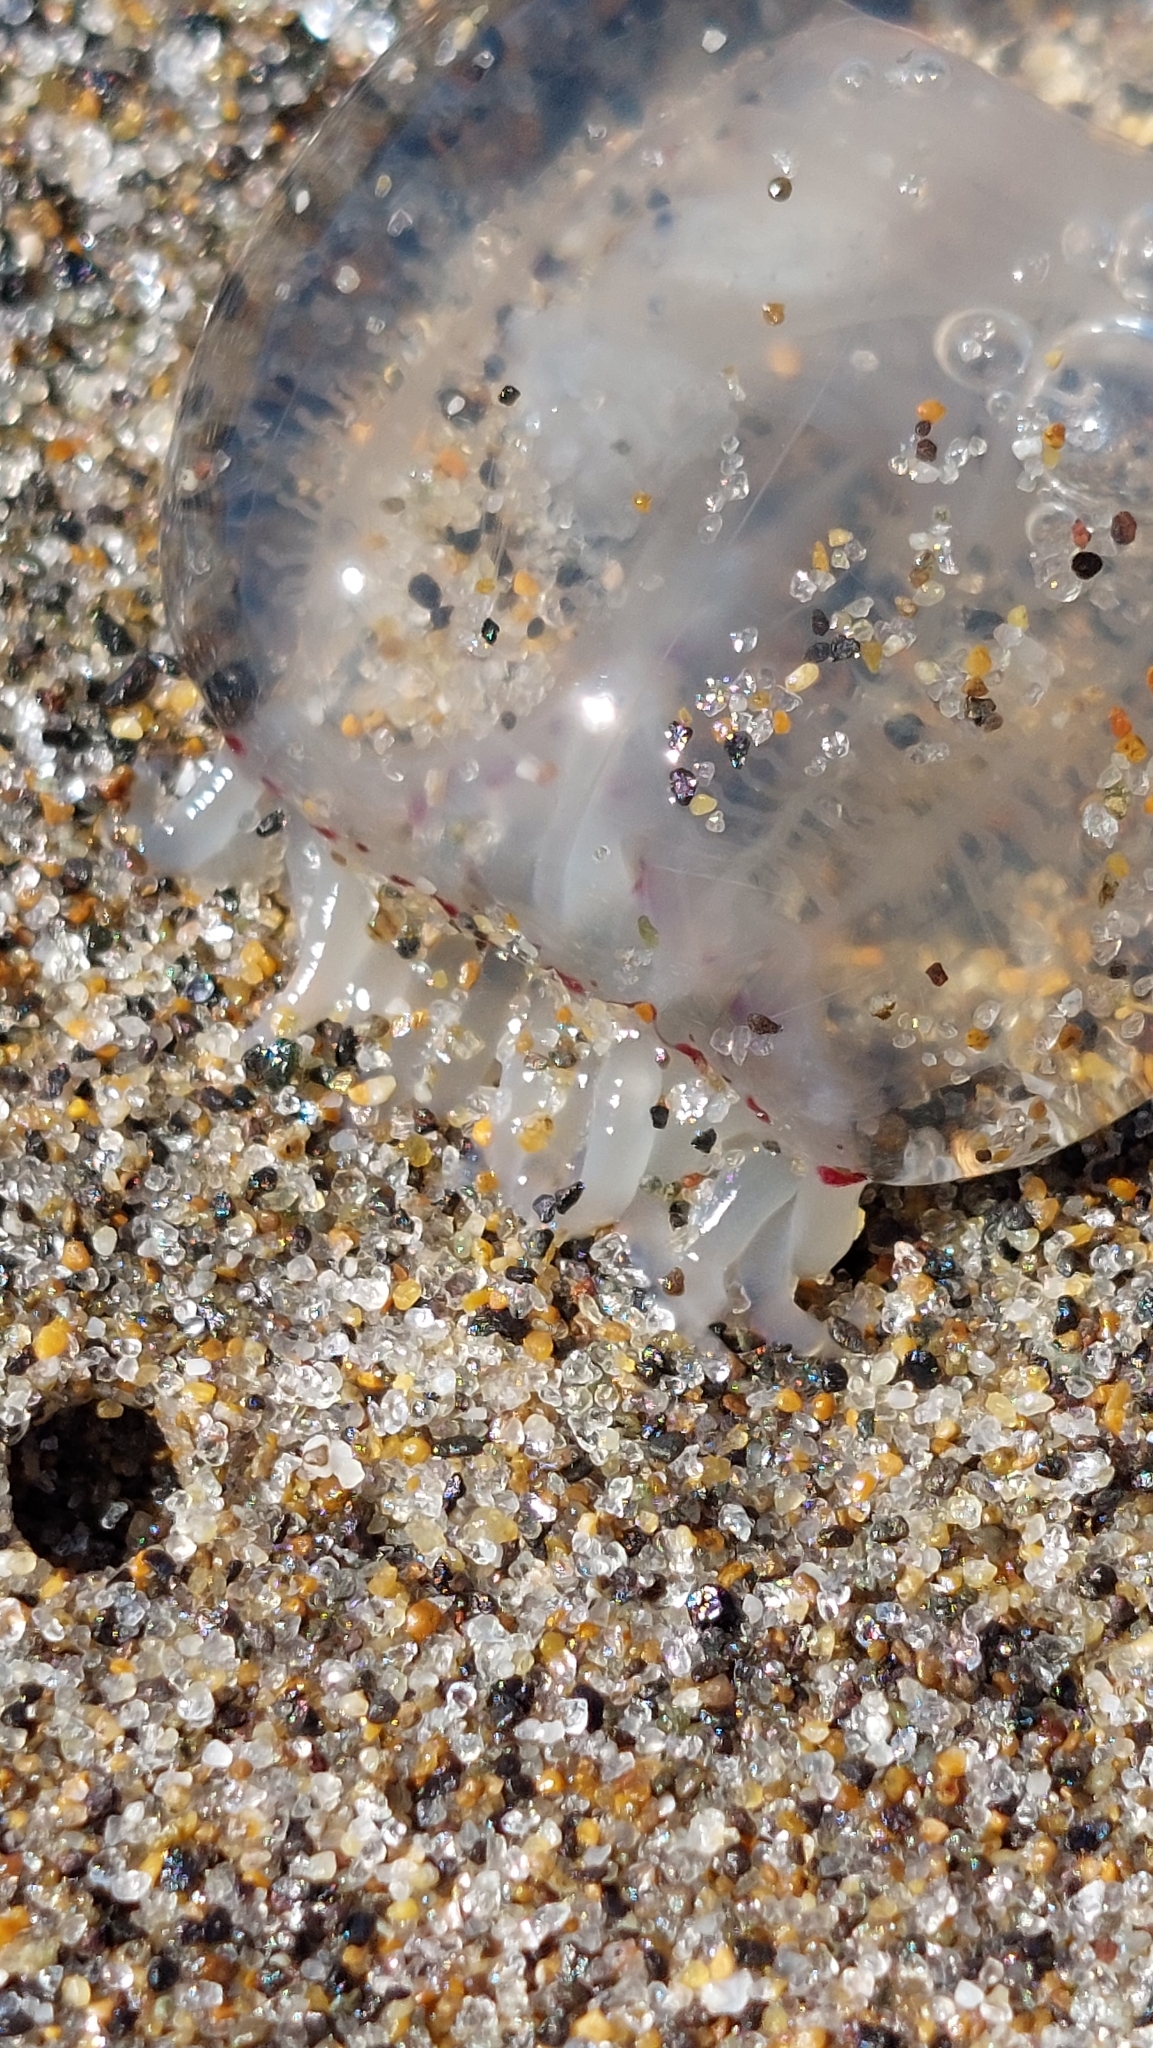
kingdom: Animalia
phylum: Cnidaria
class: Hydrozoa
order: Anthoathecata
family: Corynidae
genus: Polyorchis
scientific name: Polyorchis penicillatus
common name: Penicillate jellyfish
